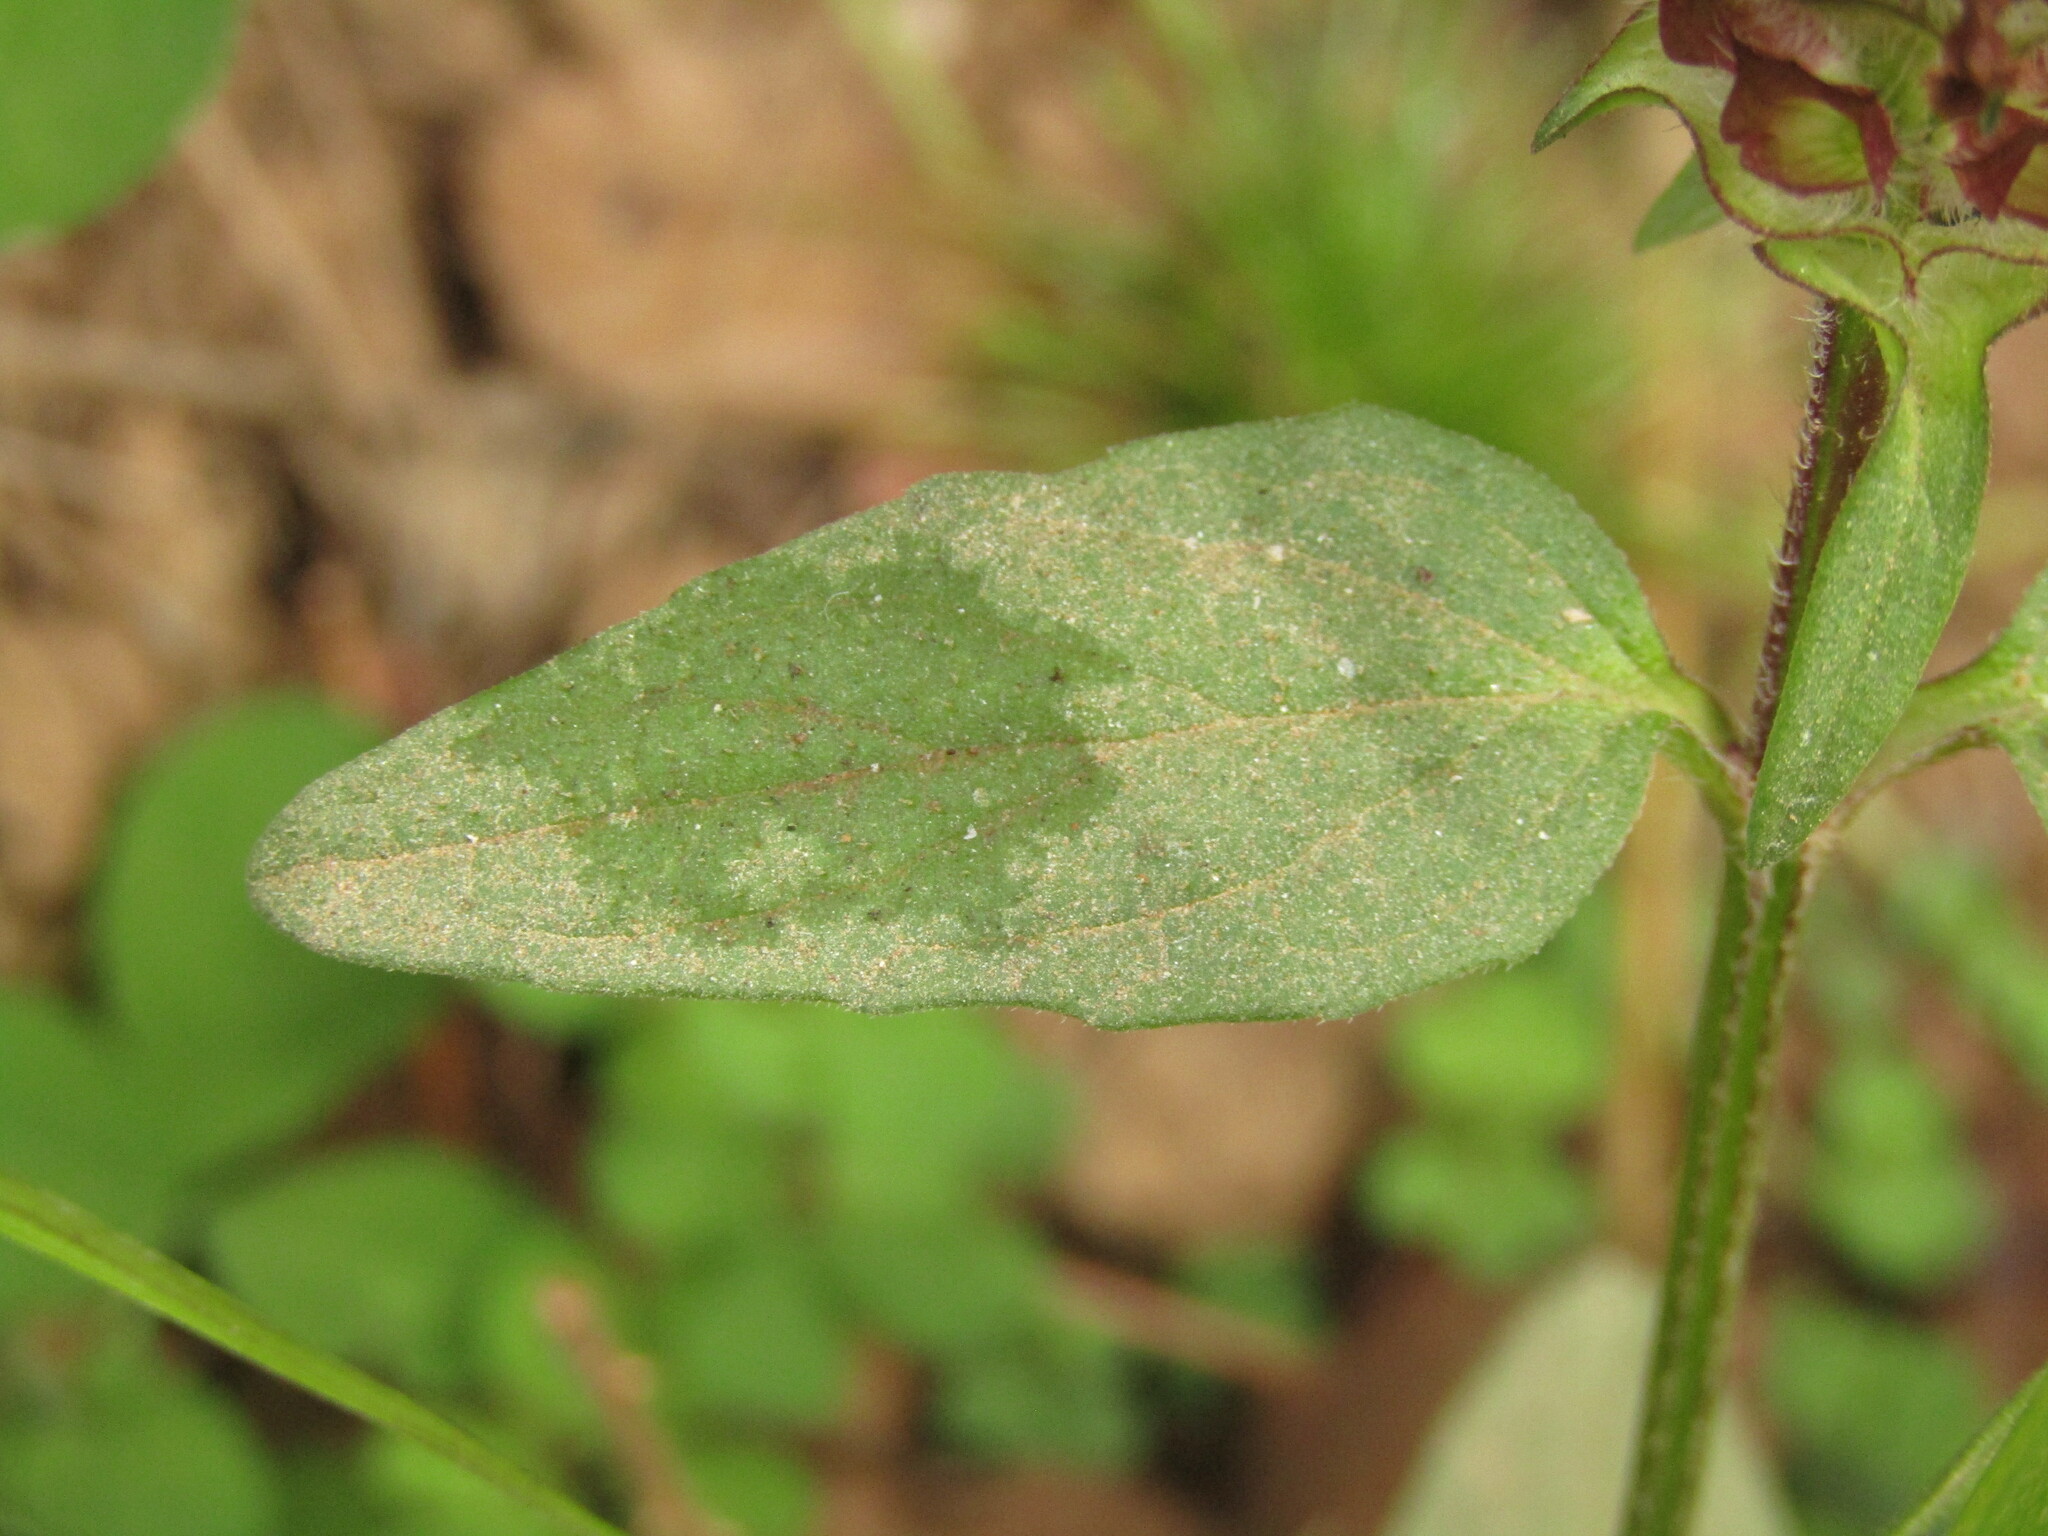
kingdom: Plantae
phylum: Tracheophyta
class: Magnoliopsida
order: Lamiales
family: Lamiaceae
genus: Prunella
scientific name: Prunella vulgaris
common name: Heal-all
